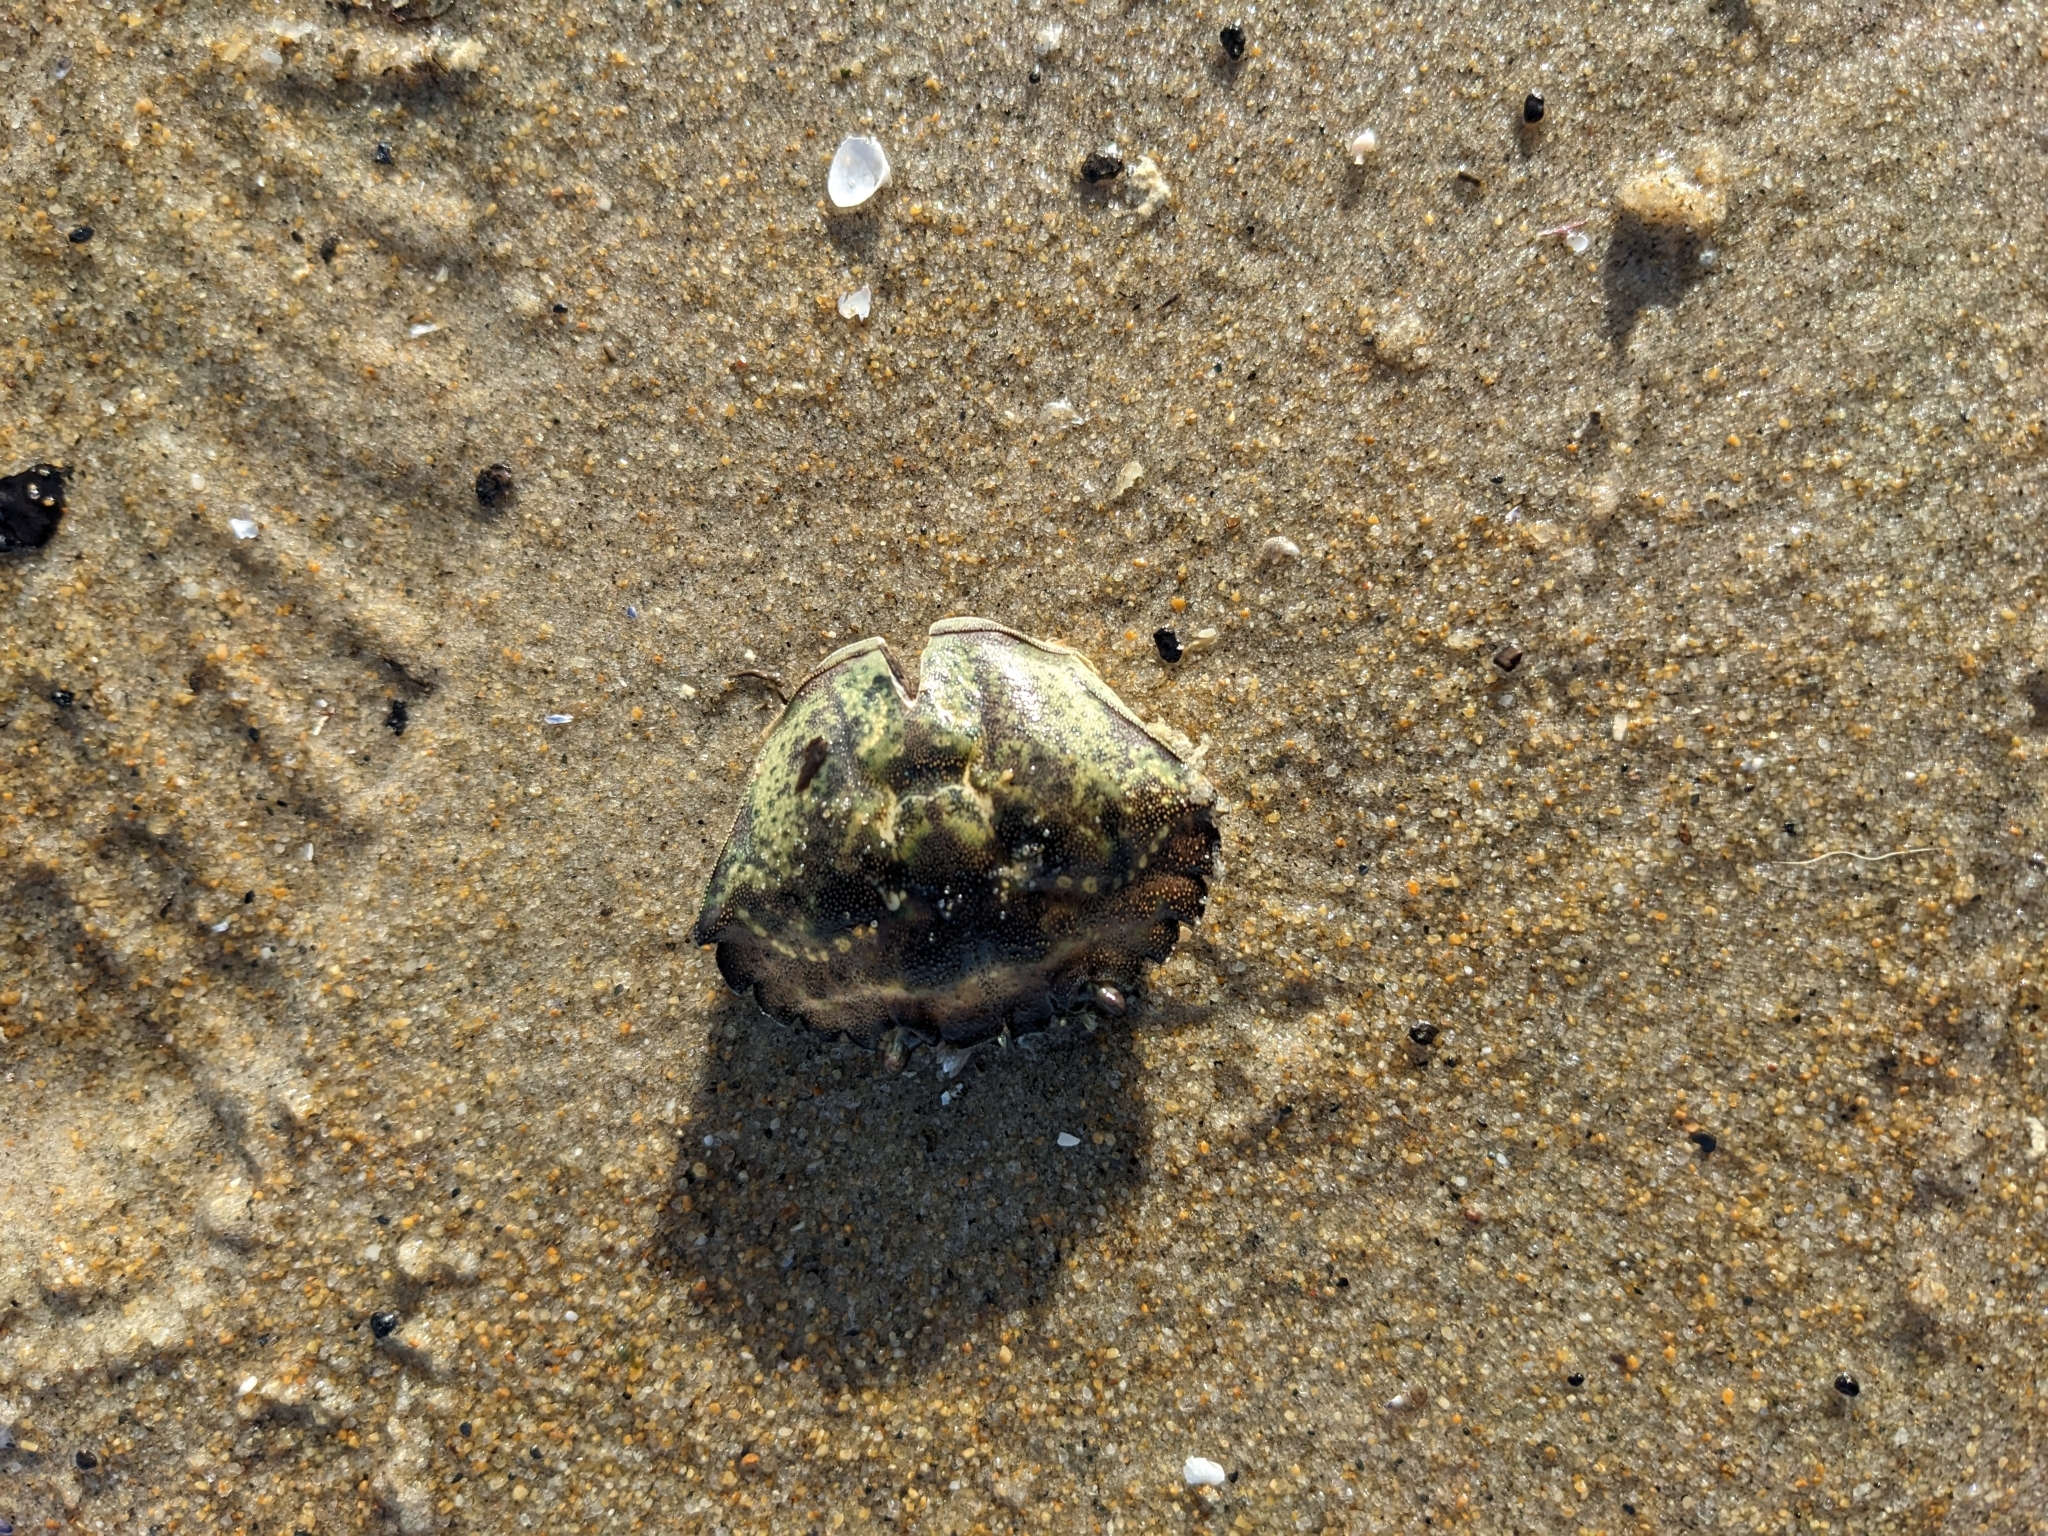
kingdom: Animalia
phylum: Arthropoda
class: Malacostraca
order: Decapoda
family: Carcinidae
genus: Carcinus
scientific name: Carcinus maenas
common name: European green crab
